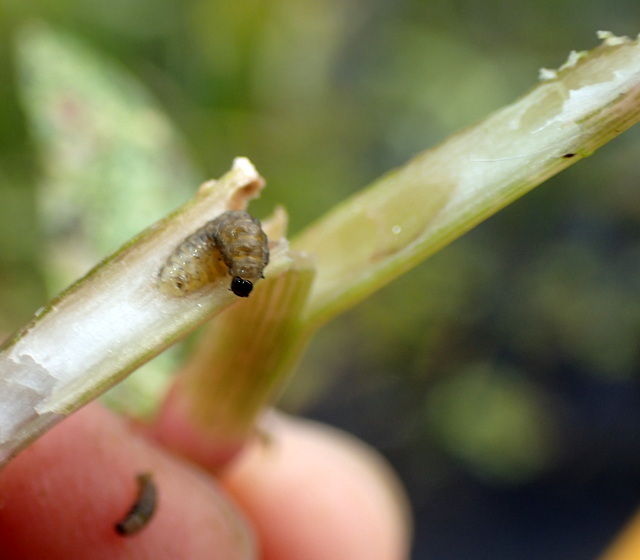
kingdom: Animalia
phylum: Arthropoda
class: Insecta
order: Coleoptera
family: Chrysomelidae
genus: Agasicles
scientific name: Agasicles hygrophila
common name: Alligatorweed flea beetle
